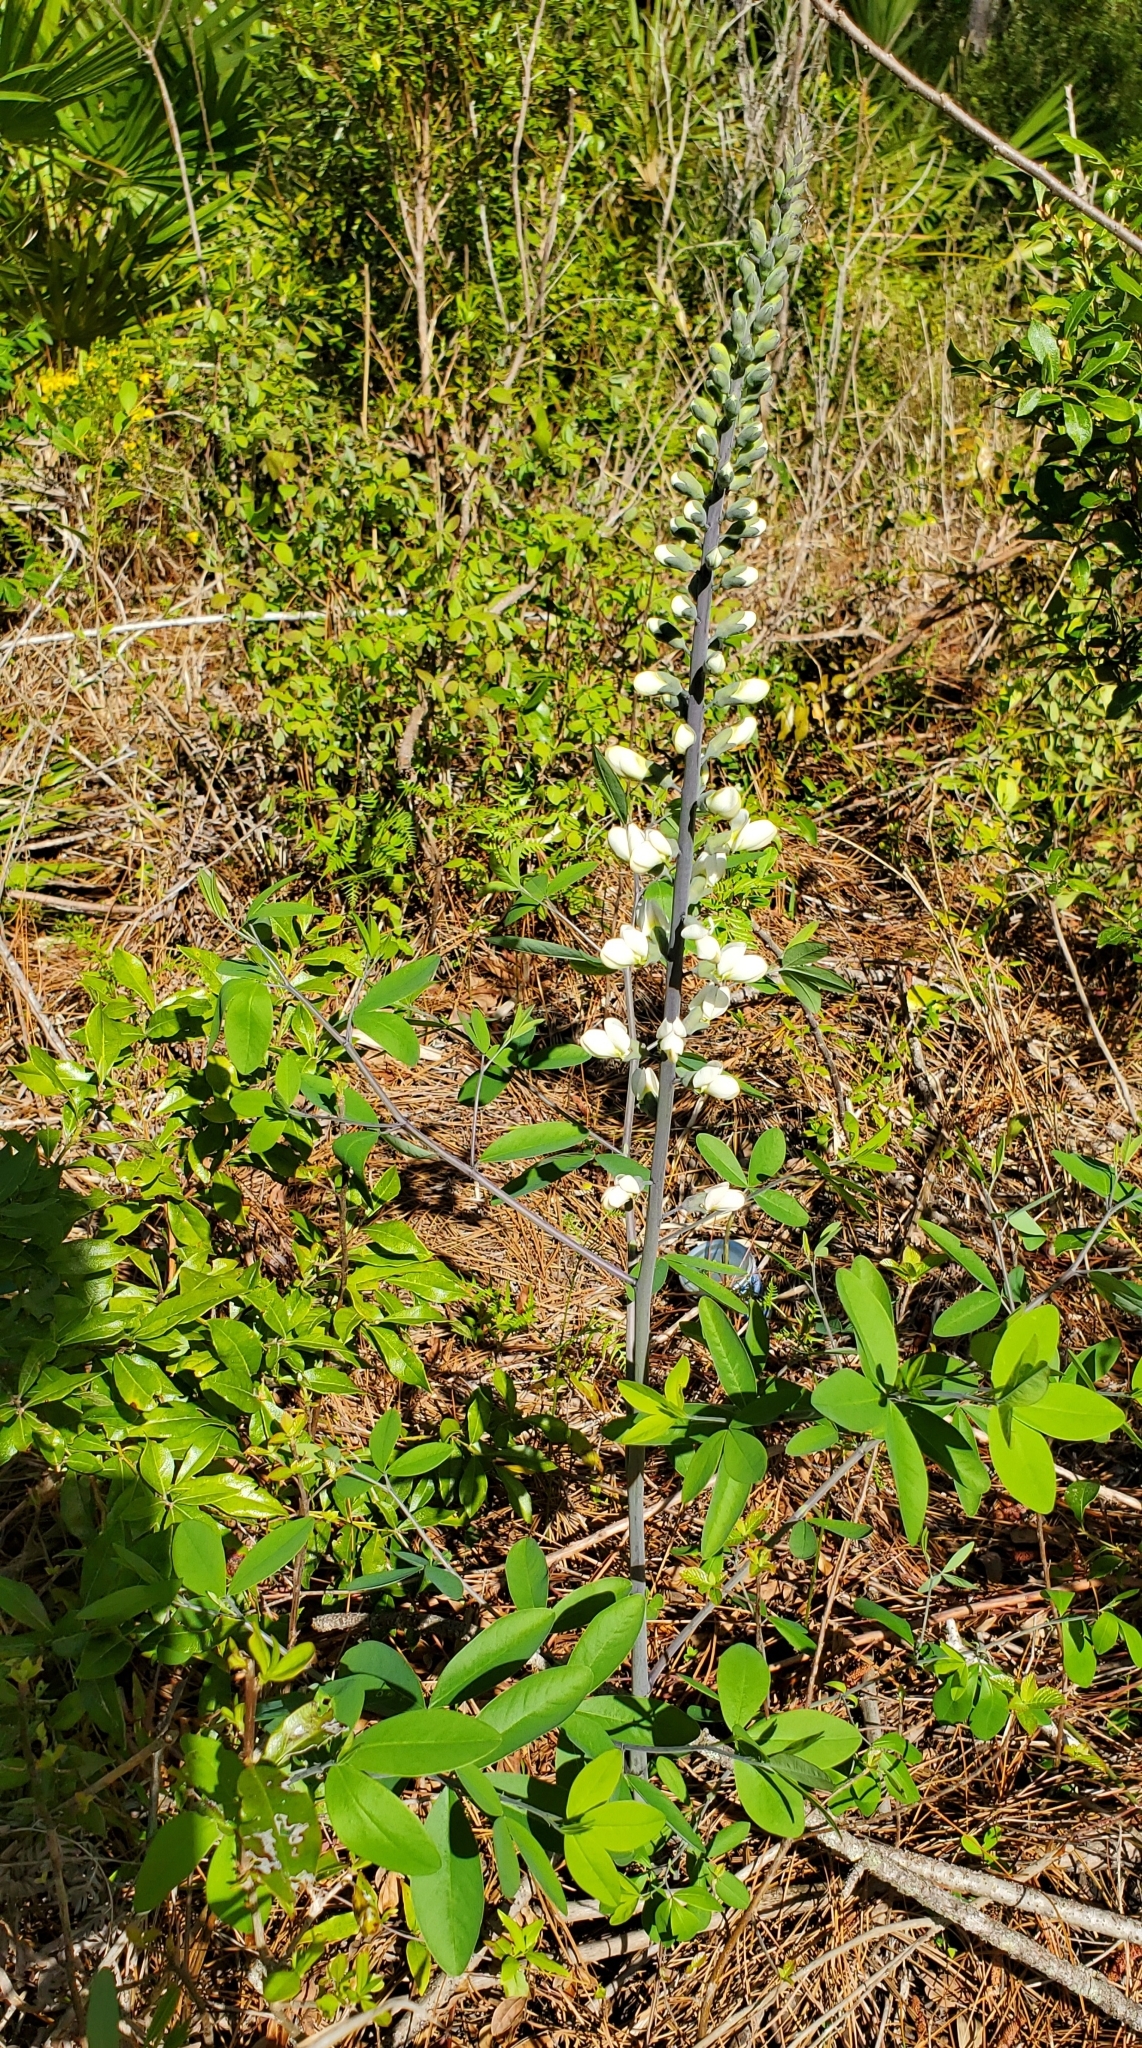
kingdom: Plantae
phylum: Tracheophyta
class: Magnoliopsida
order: Fabales
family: Fabaceae
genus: Baptisia
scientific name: Baptisia alba
